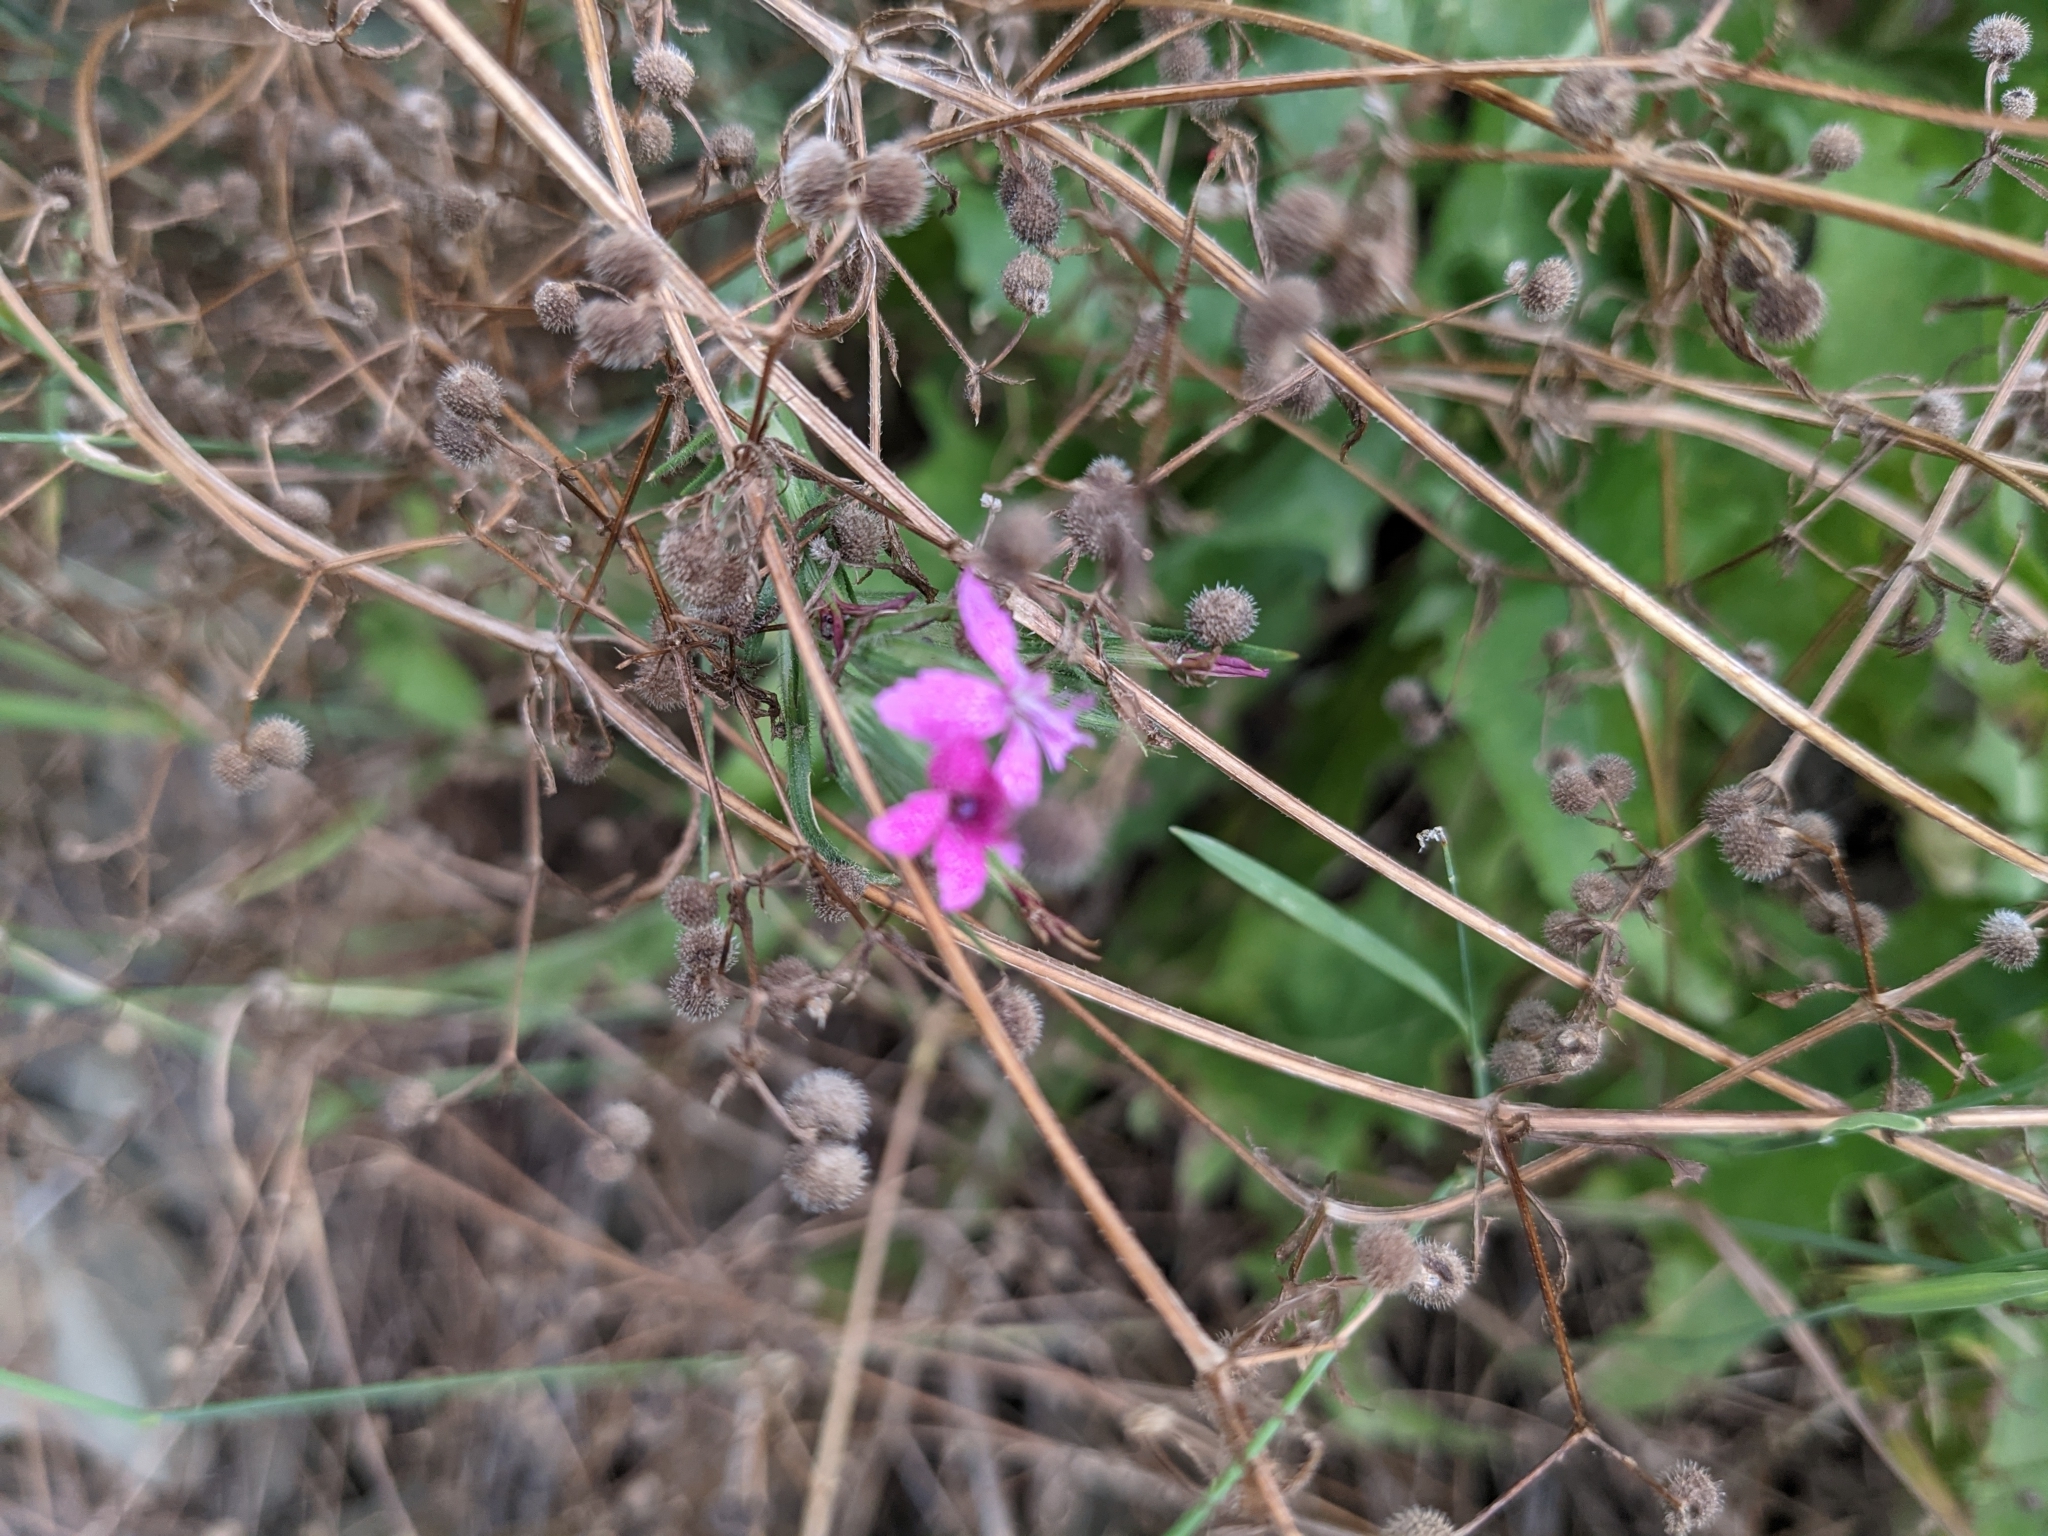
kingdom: Plantae
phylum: Tracheophyta
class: Magnoliopsida
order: Caryophyllales
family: Caryophyllaceae
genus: Dianthus
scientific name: Dianthus armeria
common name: Deptford pink
